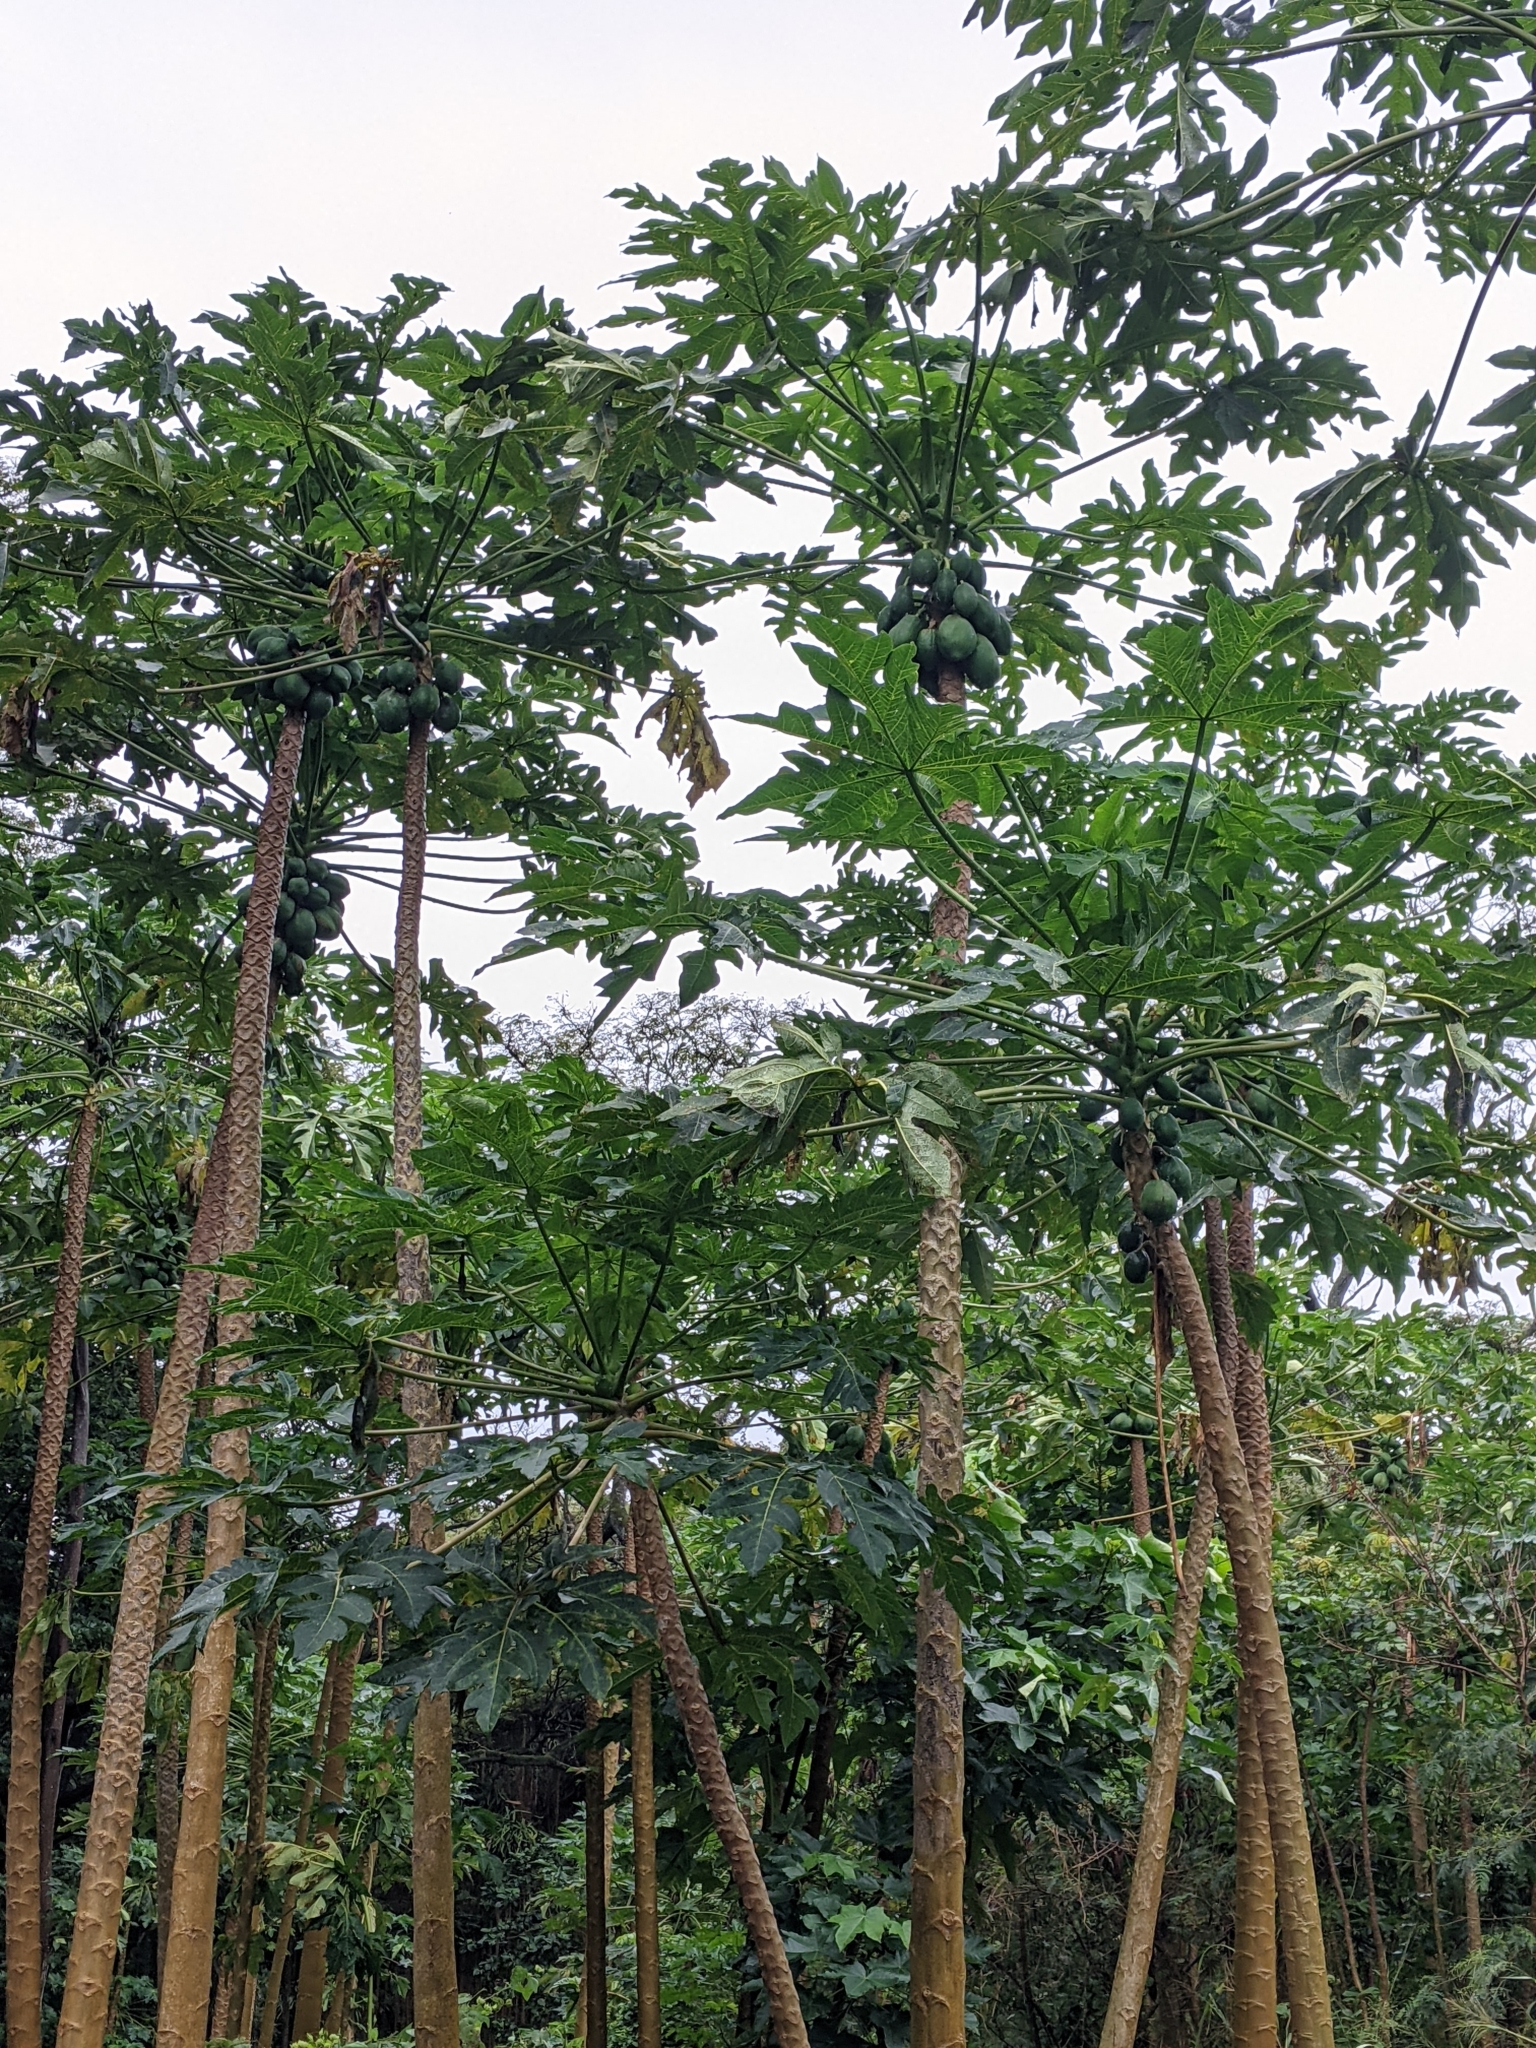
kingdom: Plantae
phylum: Tracheophyta
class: Magnoliopsida
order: Brassicales
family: Caricaceae
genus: Carica
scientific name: Carica papaya
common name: Papaya
